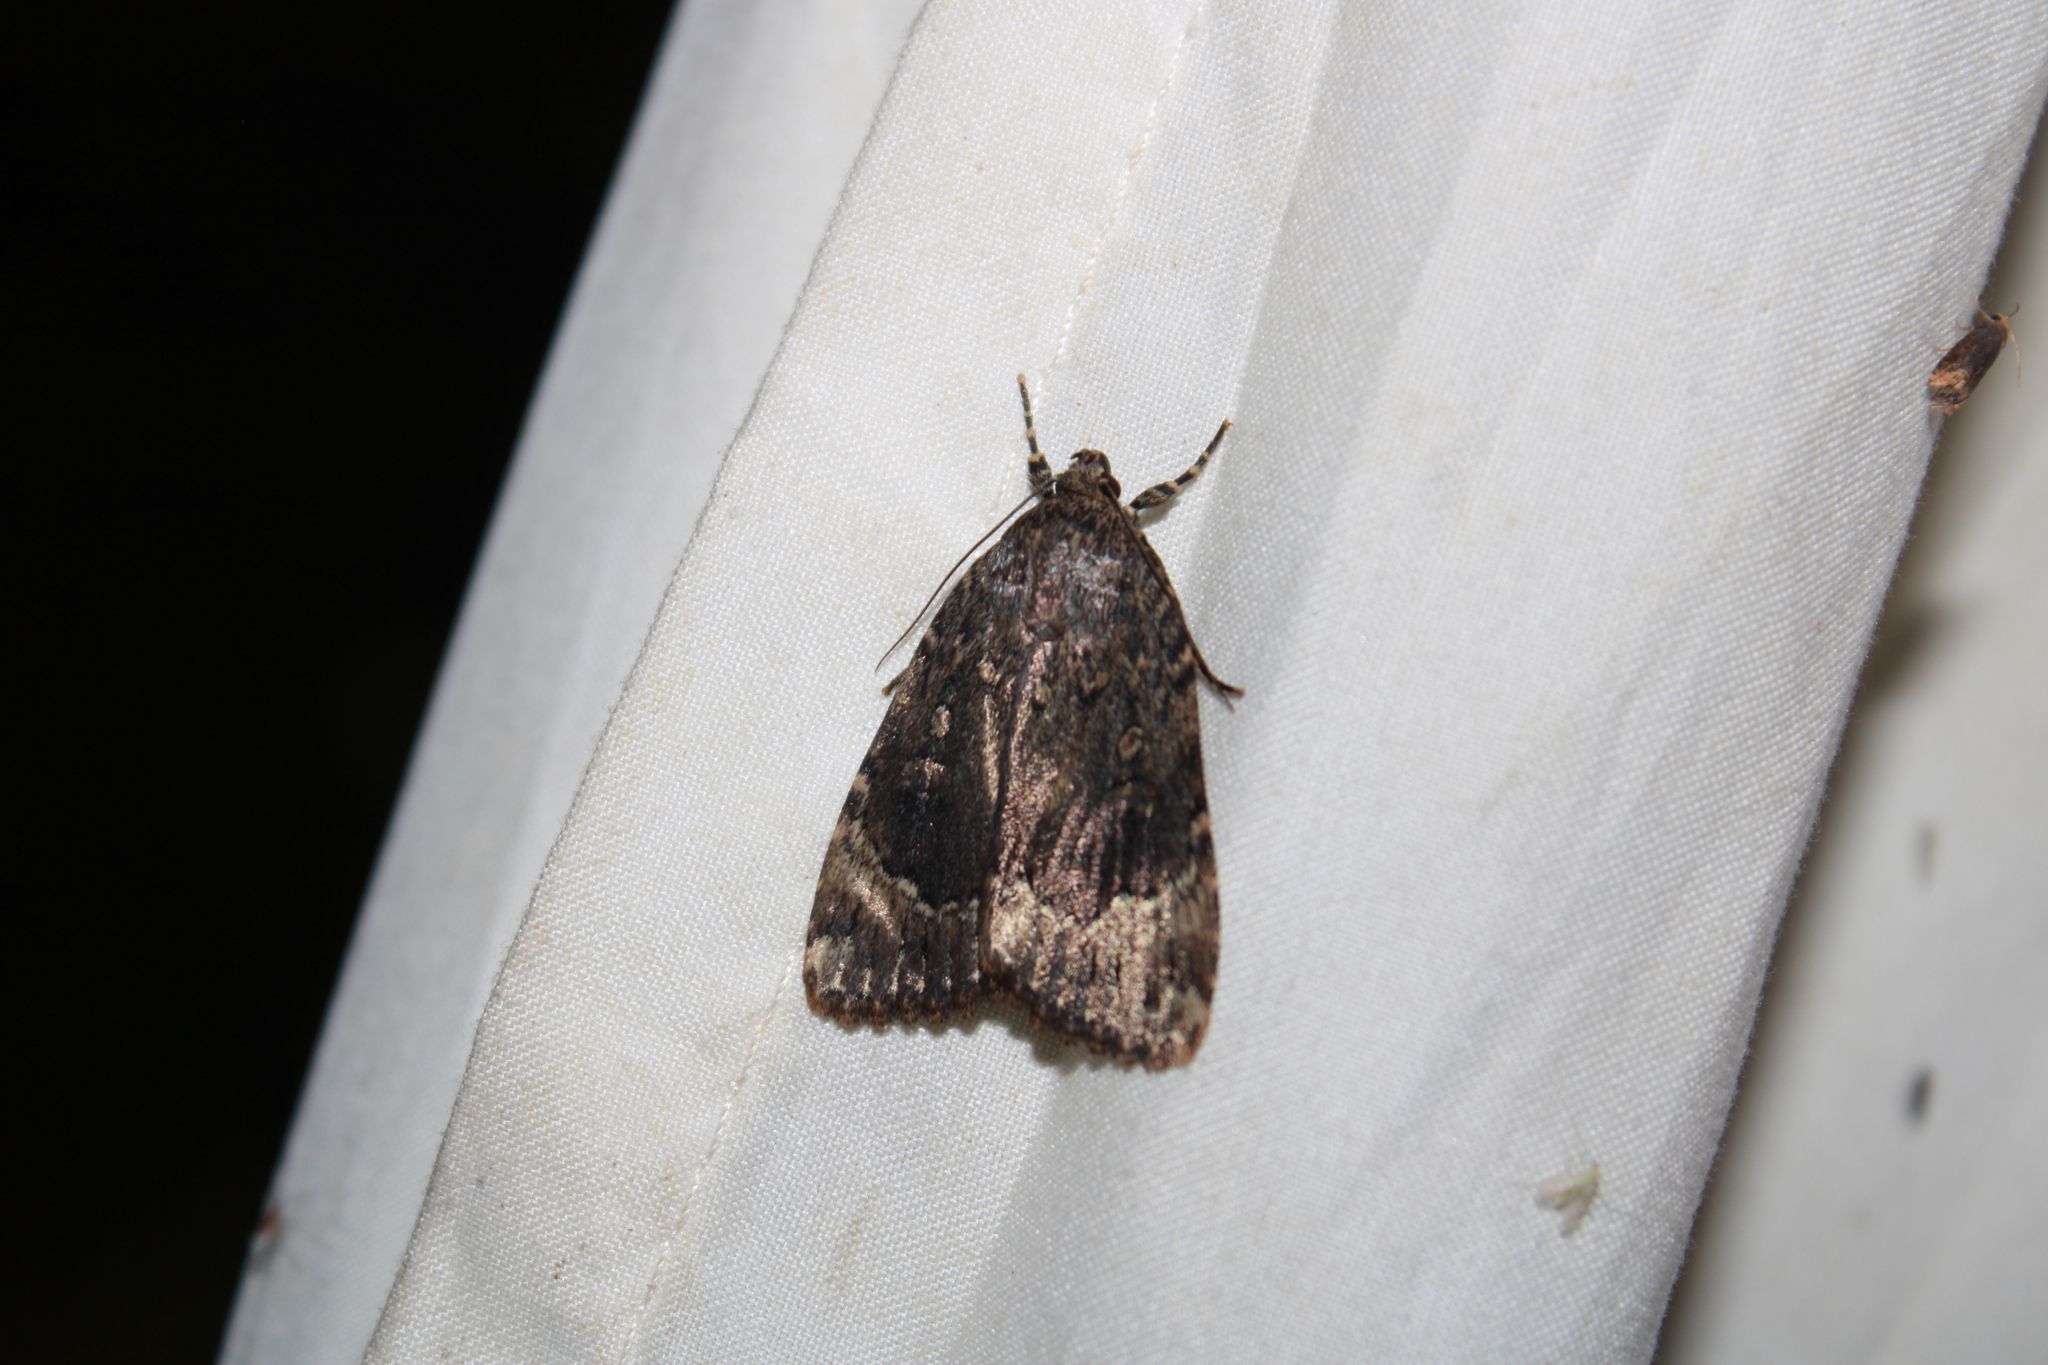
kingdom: Animalia
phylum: Arthropoda
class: Insecta
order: Lepidoptera
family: Noctuidae
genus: Amphipyra
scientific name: Amphipyra pyramidoides
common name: American copper underwing
